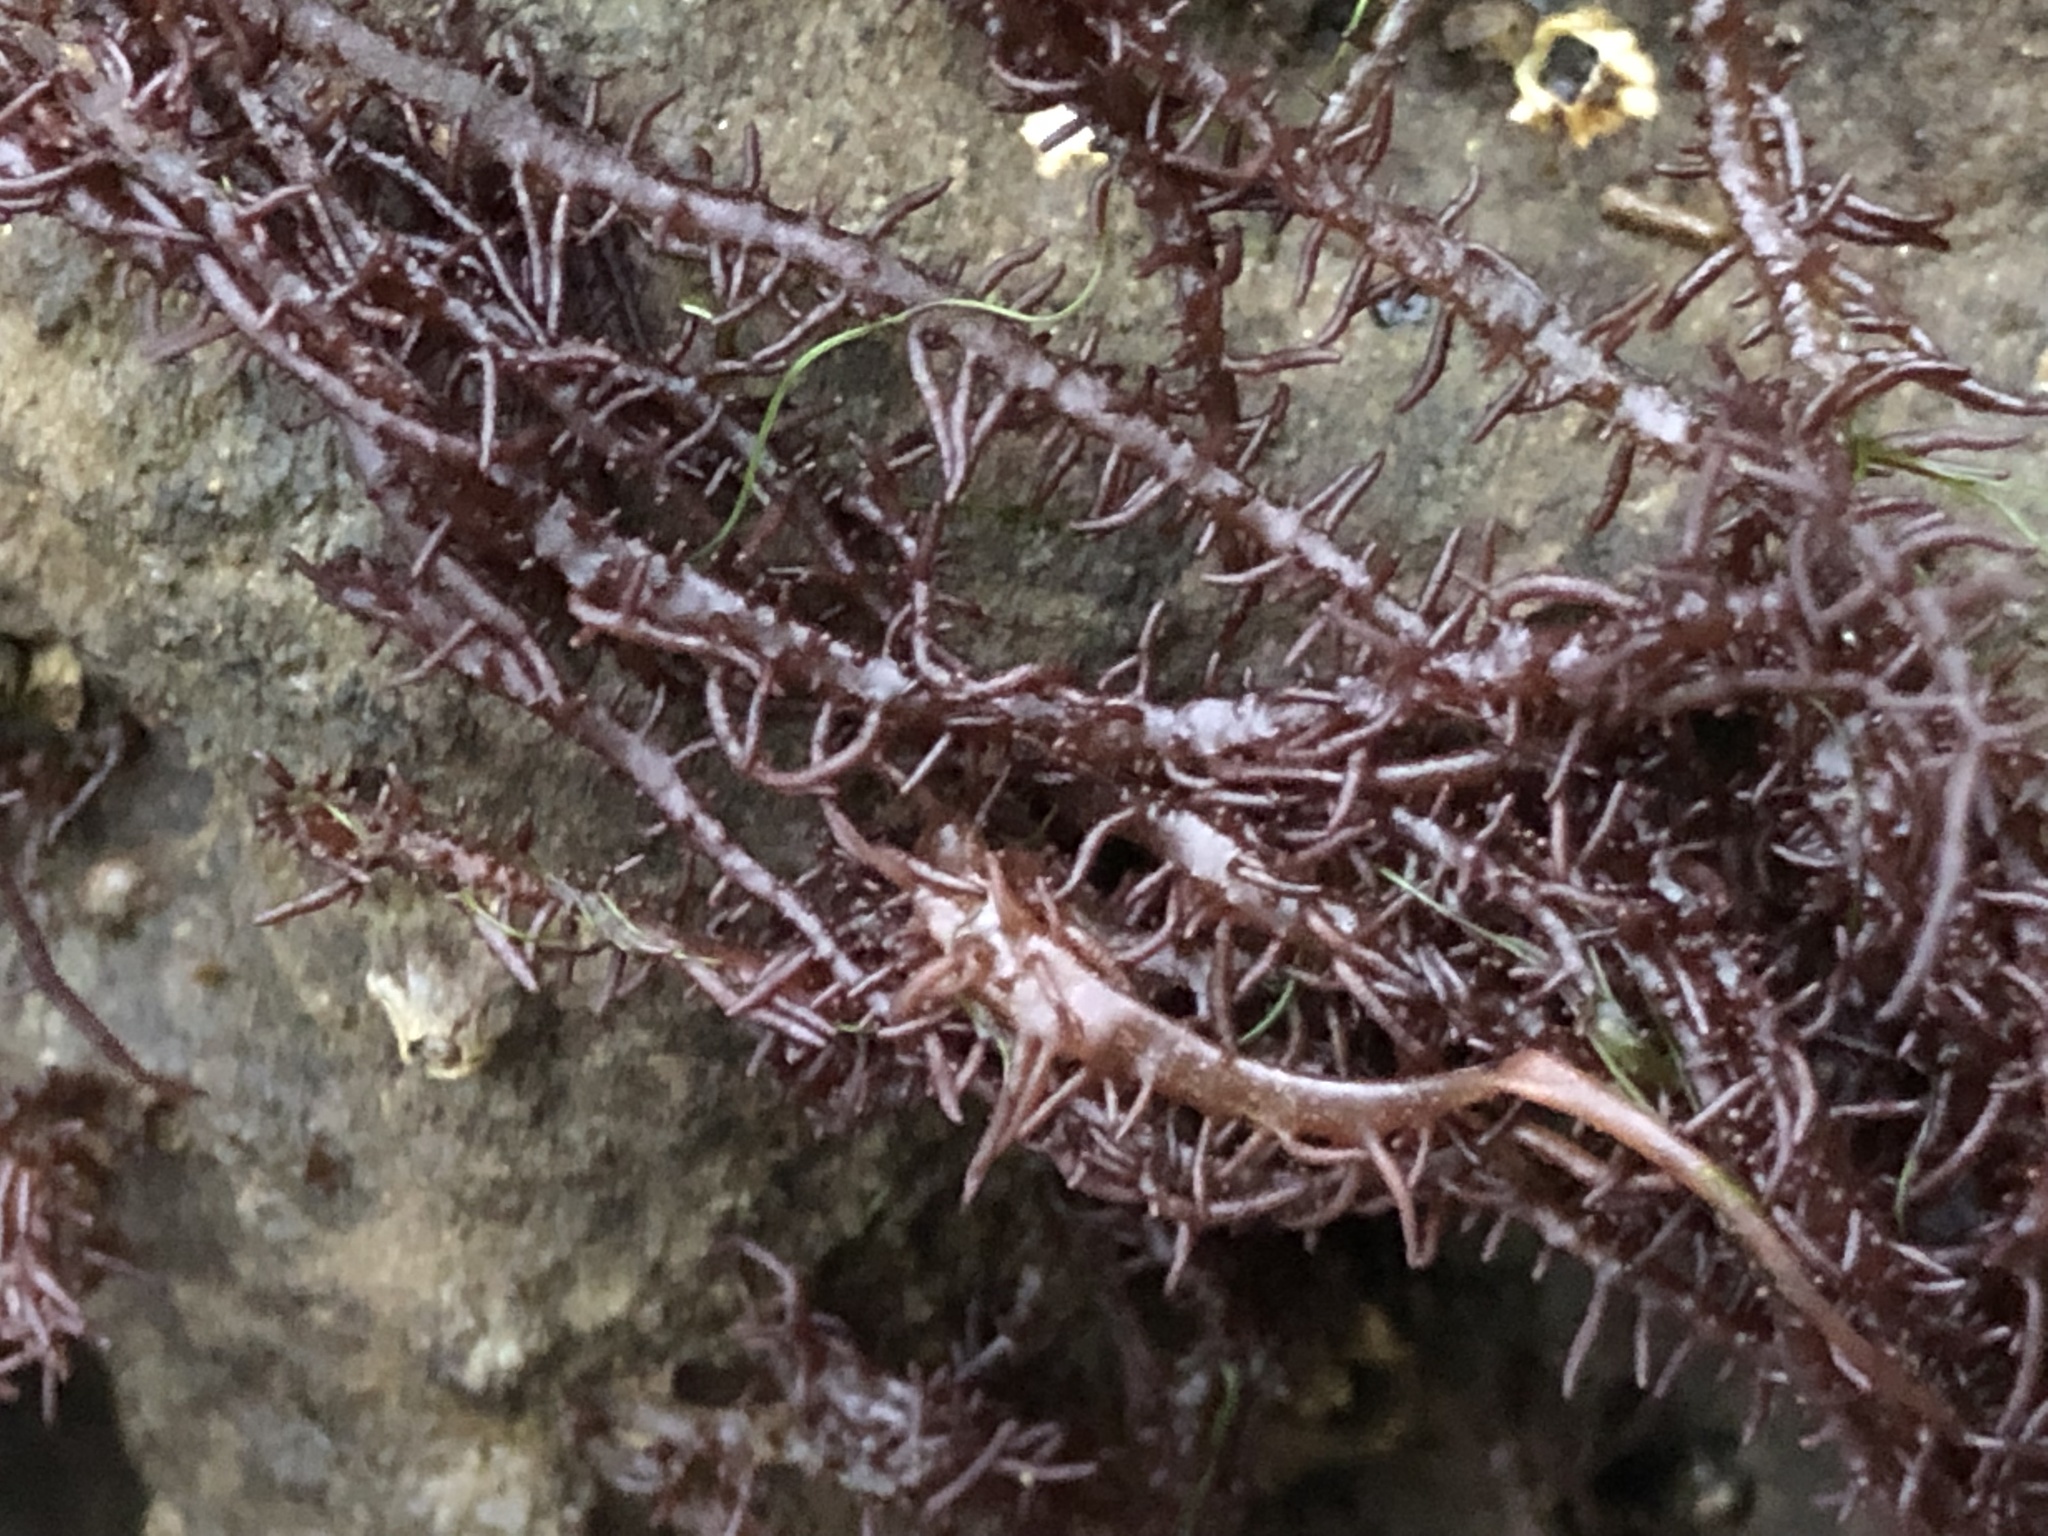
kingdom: Plantae
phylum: Rhodophyta
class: Florideophyceae
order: Nemaliales
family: Liagoraceae
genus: Cumagloia
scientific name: Cumagloia andersonii
